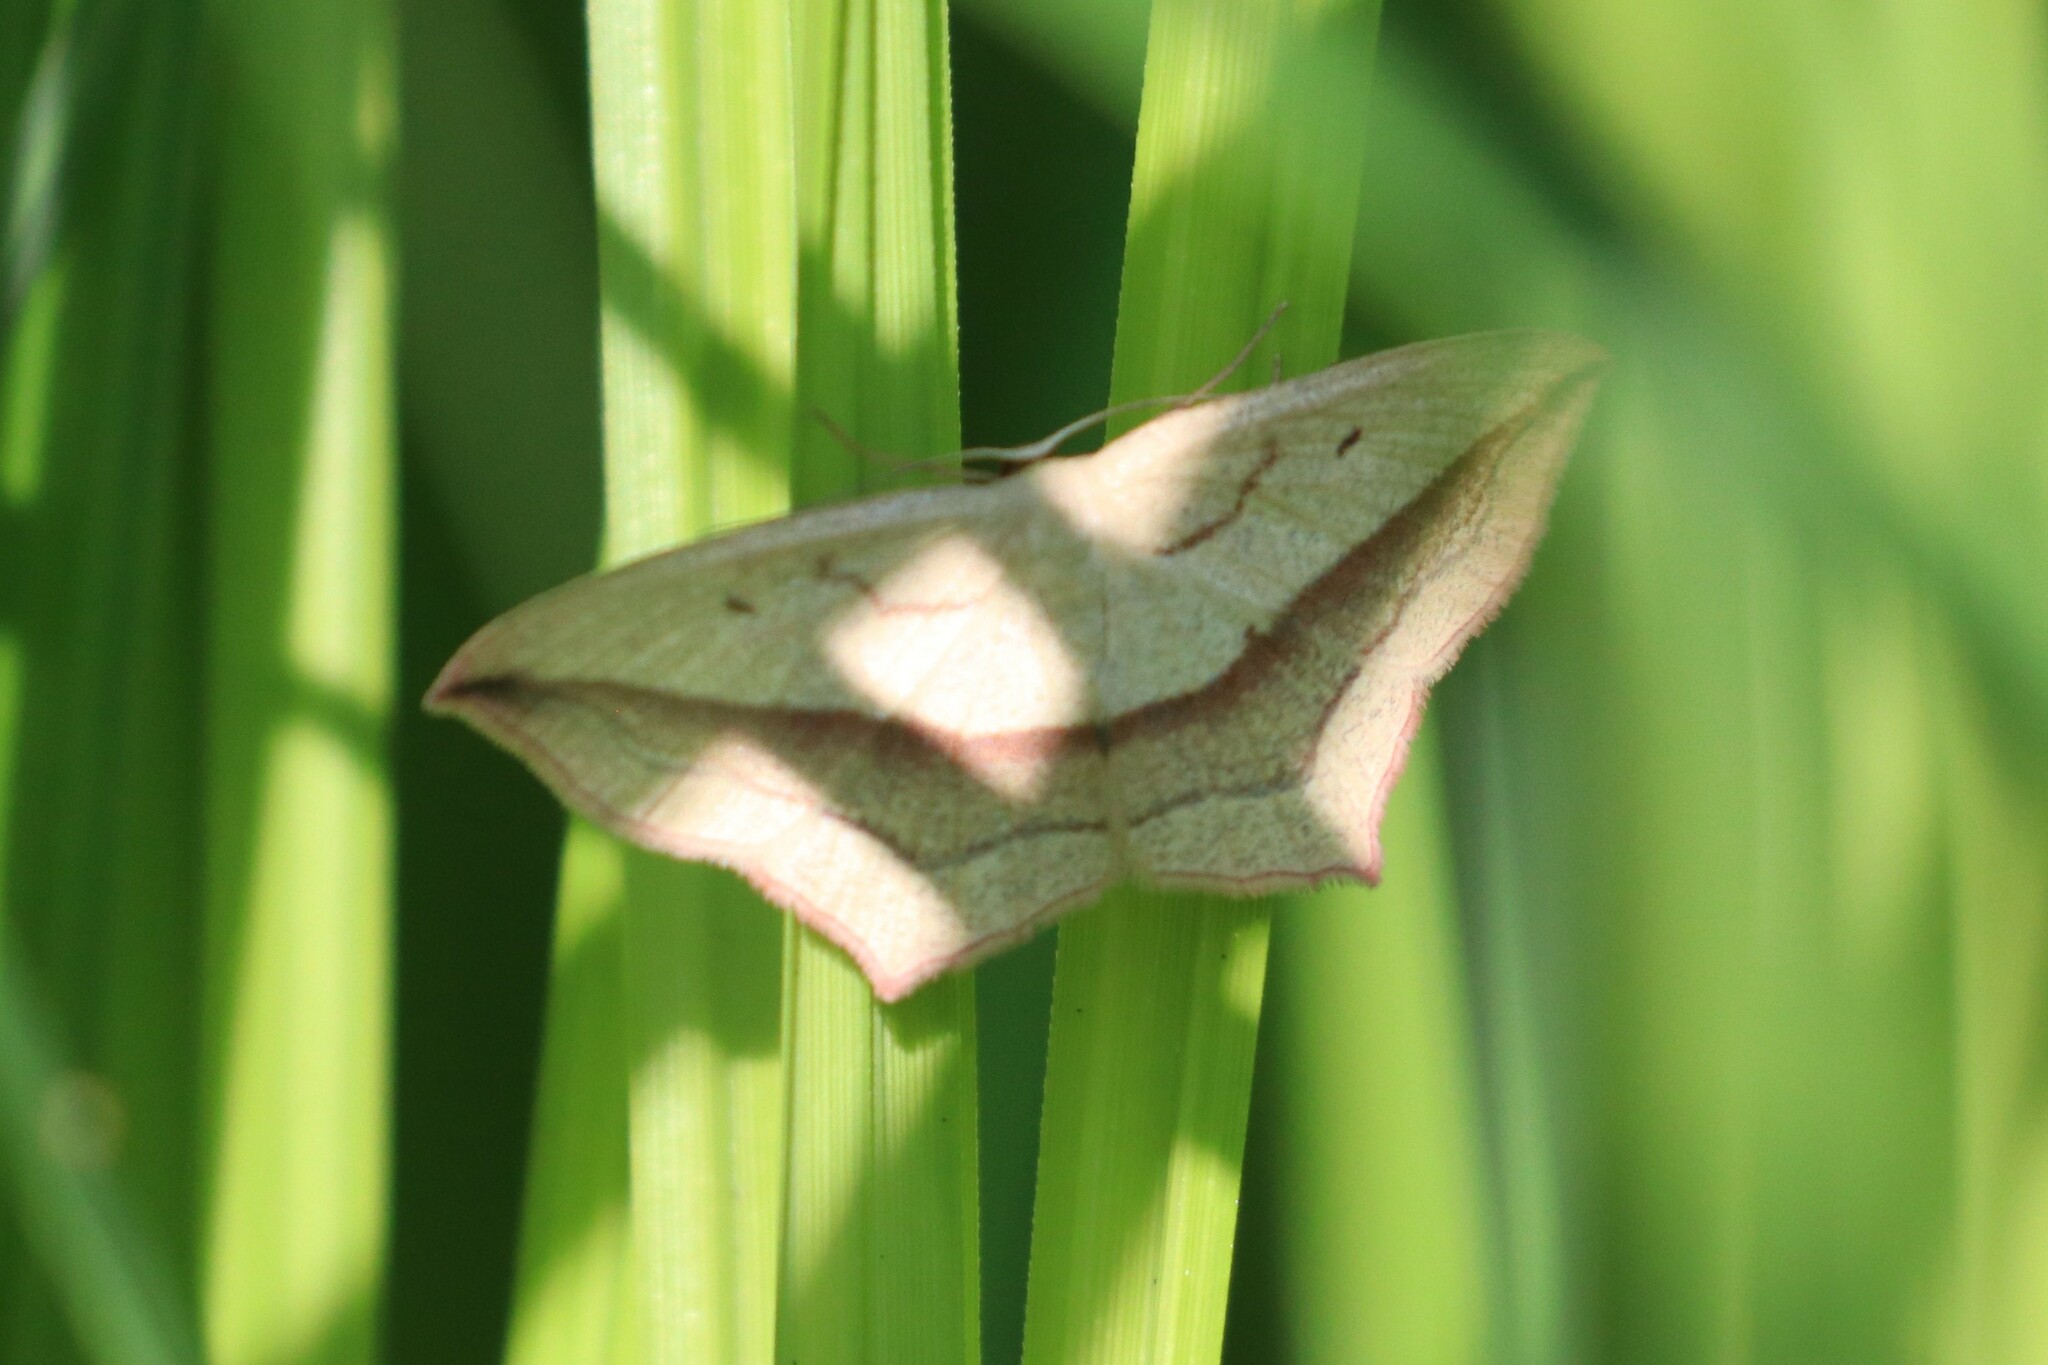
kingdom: Animalia
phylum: Arthropoda
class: Insecta
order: Lepidoptera
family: Geometridae
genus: Timandra
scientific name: Timandra comae
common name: Blood-vein
